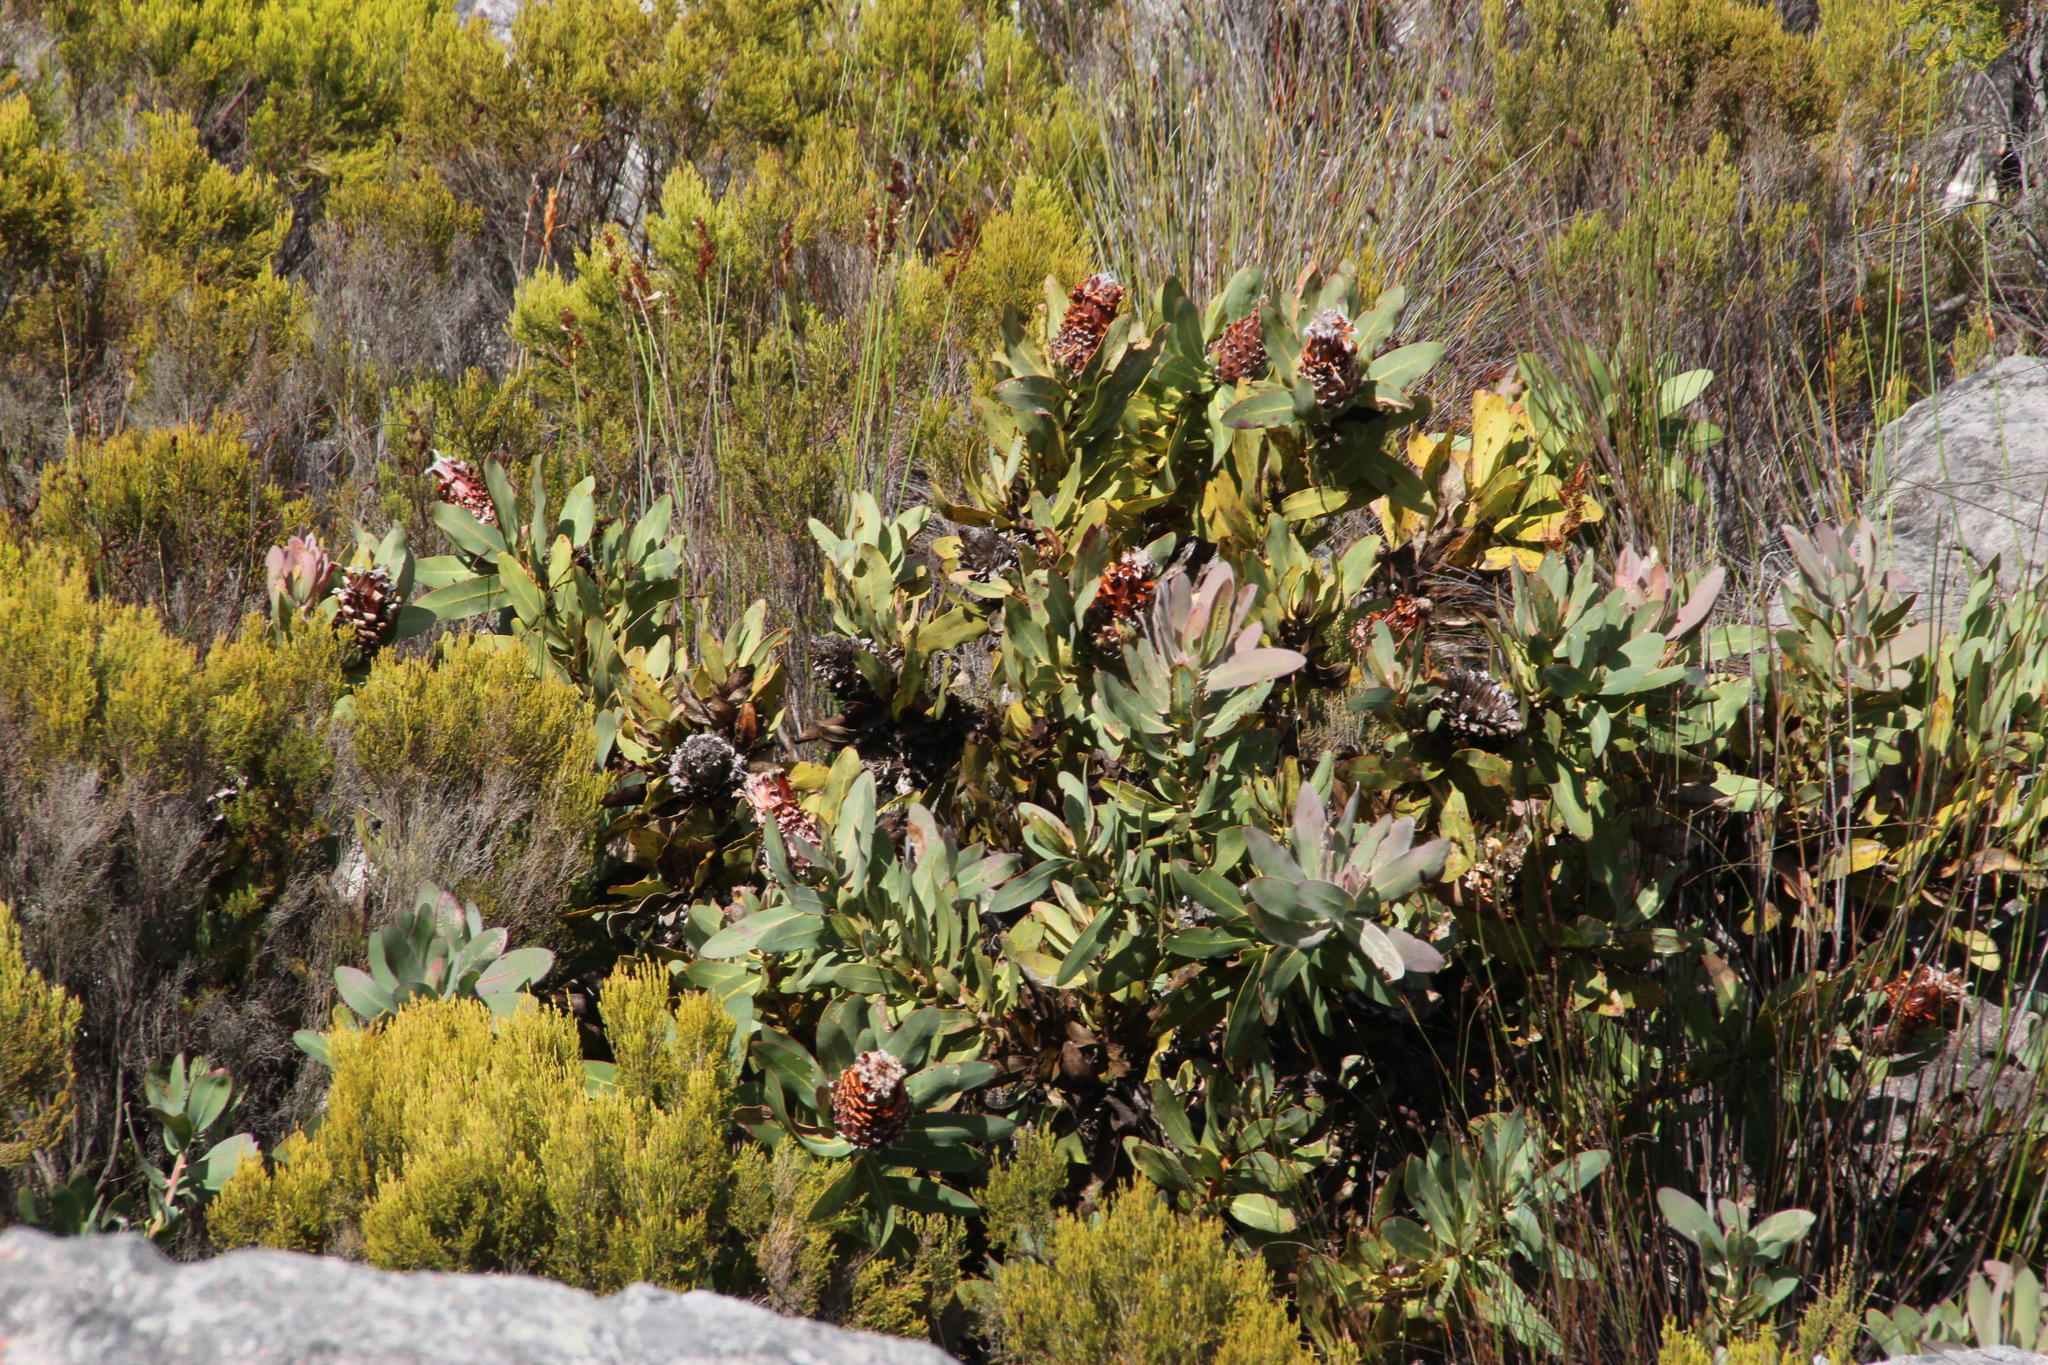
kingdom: Plantae
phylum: Tracheophyta
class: Magnoliopsida
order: Proteales
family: Proteaceae
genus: Protea
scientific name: Protea magnifica
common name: Bearded sugarbush
